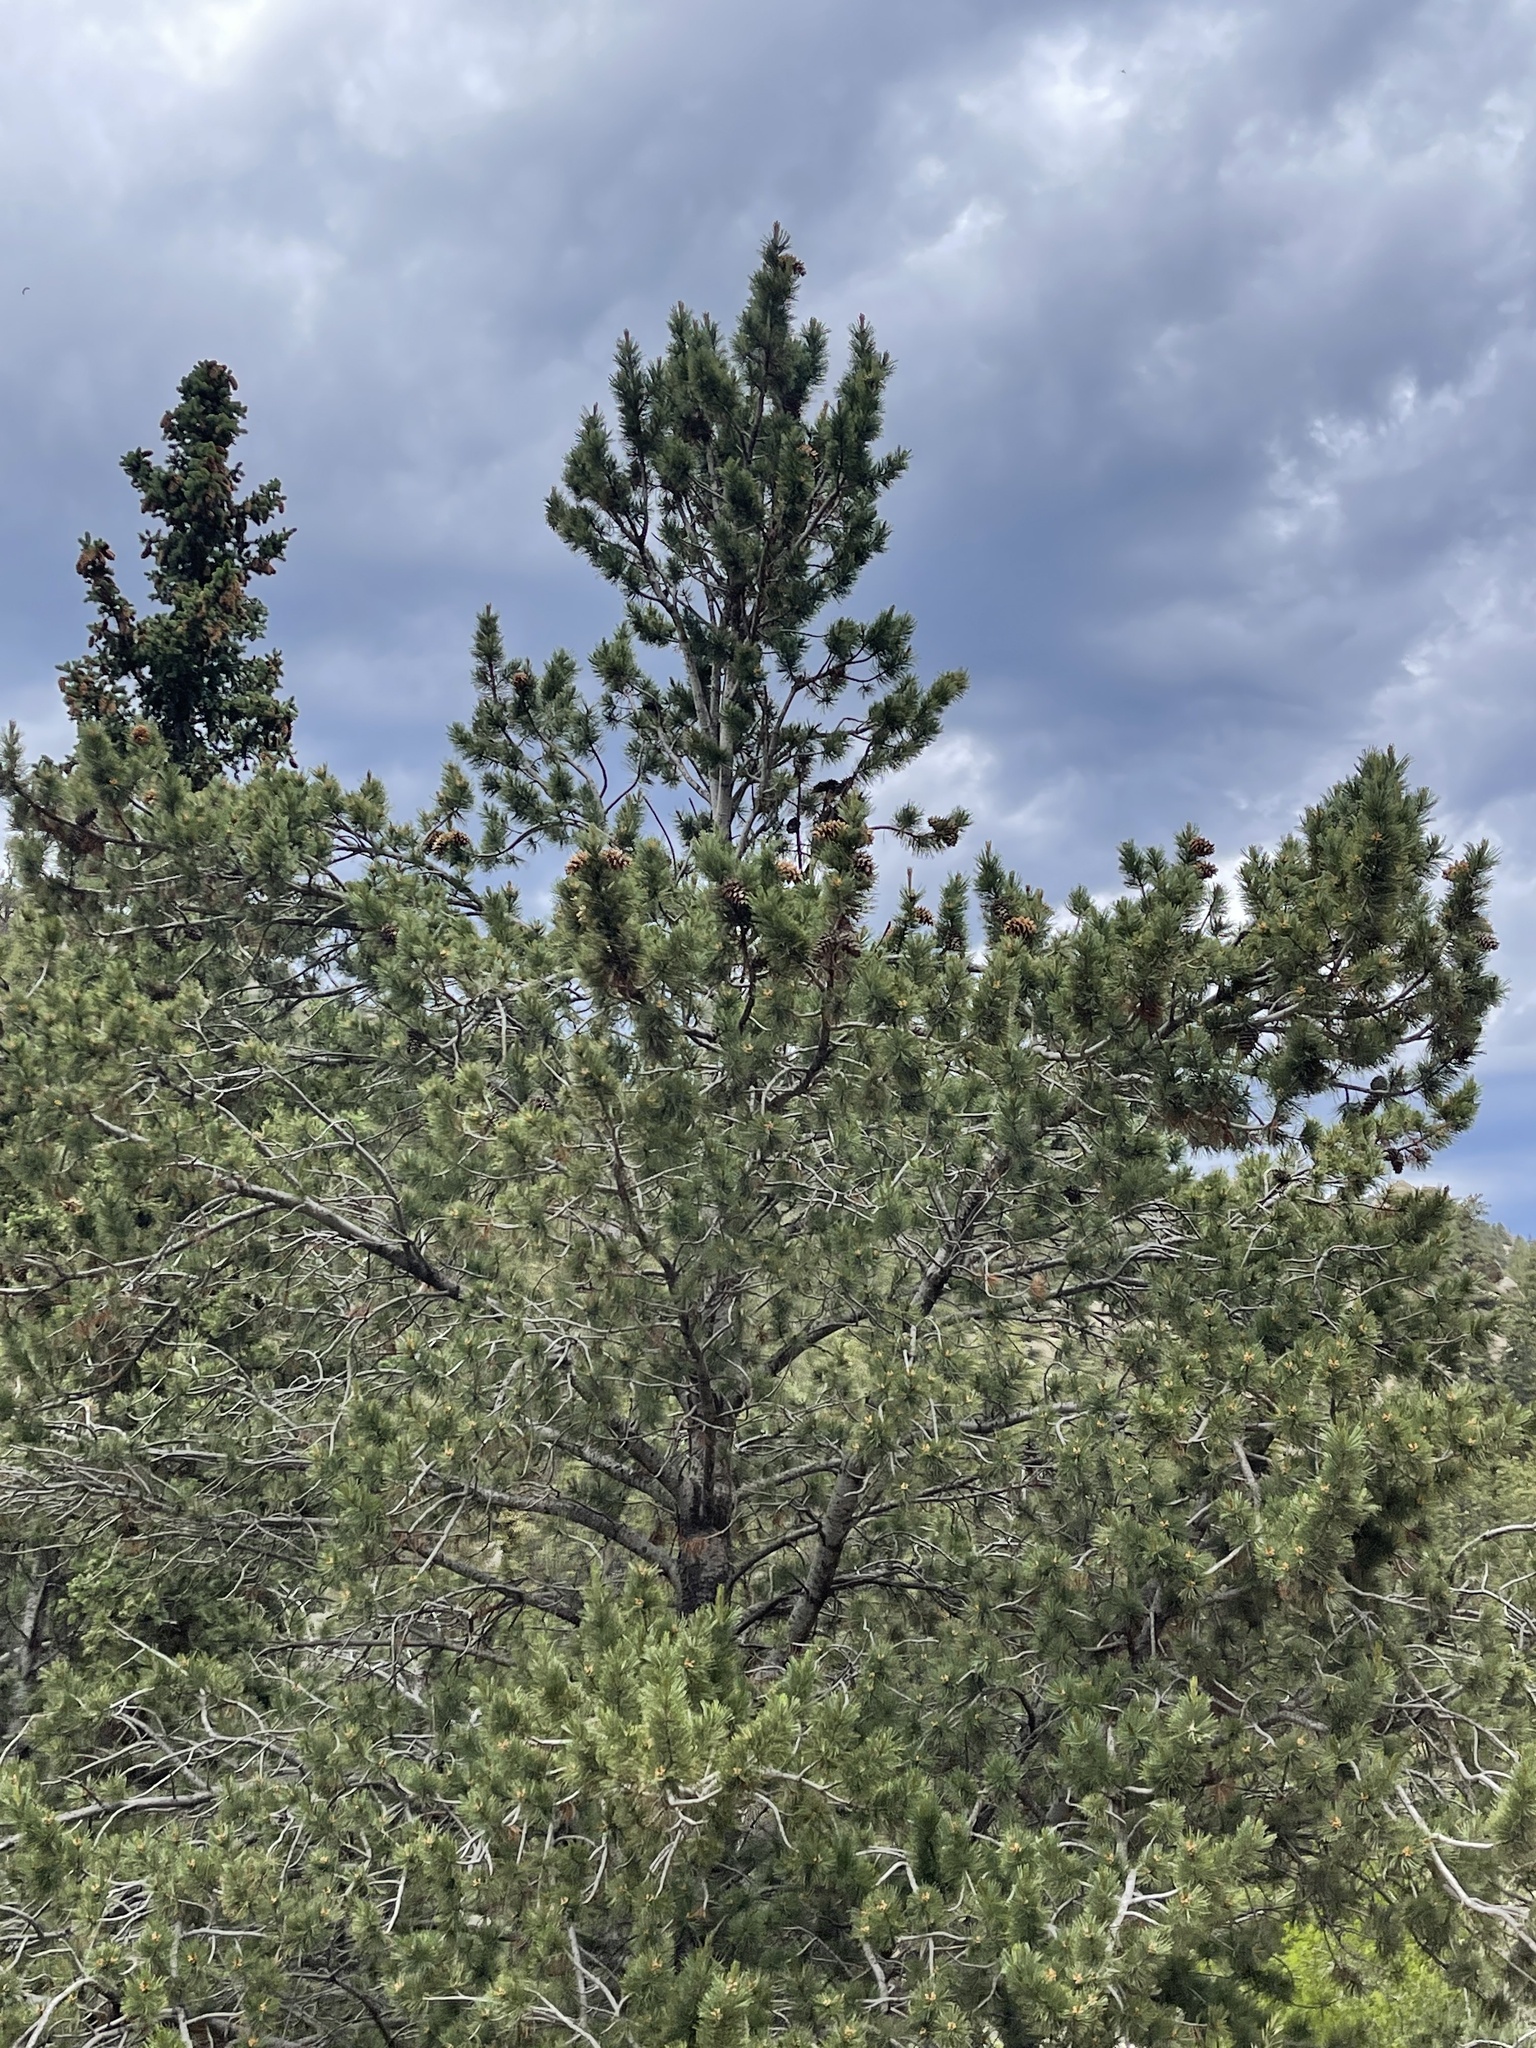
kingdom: Plantae
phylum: Tracheophyta
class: Pinopsida
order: Pinales
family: Pinaceae
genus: Pinus
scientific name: Pinus flexilis
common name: Limber pine
